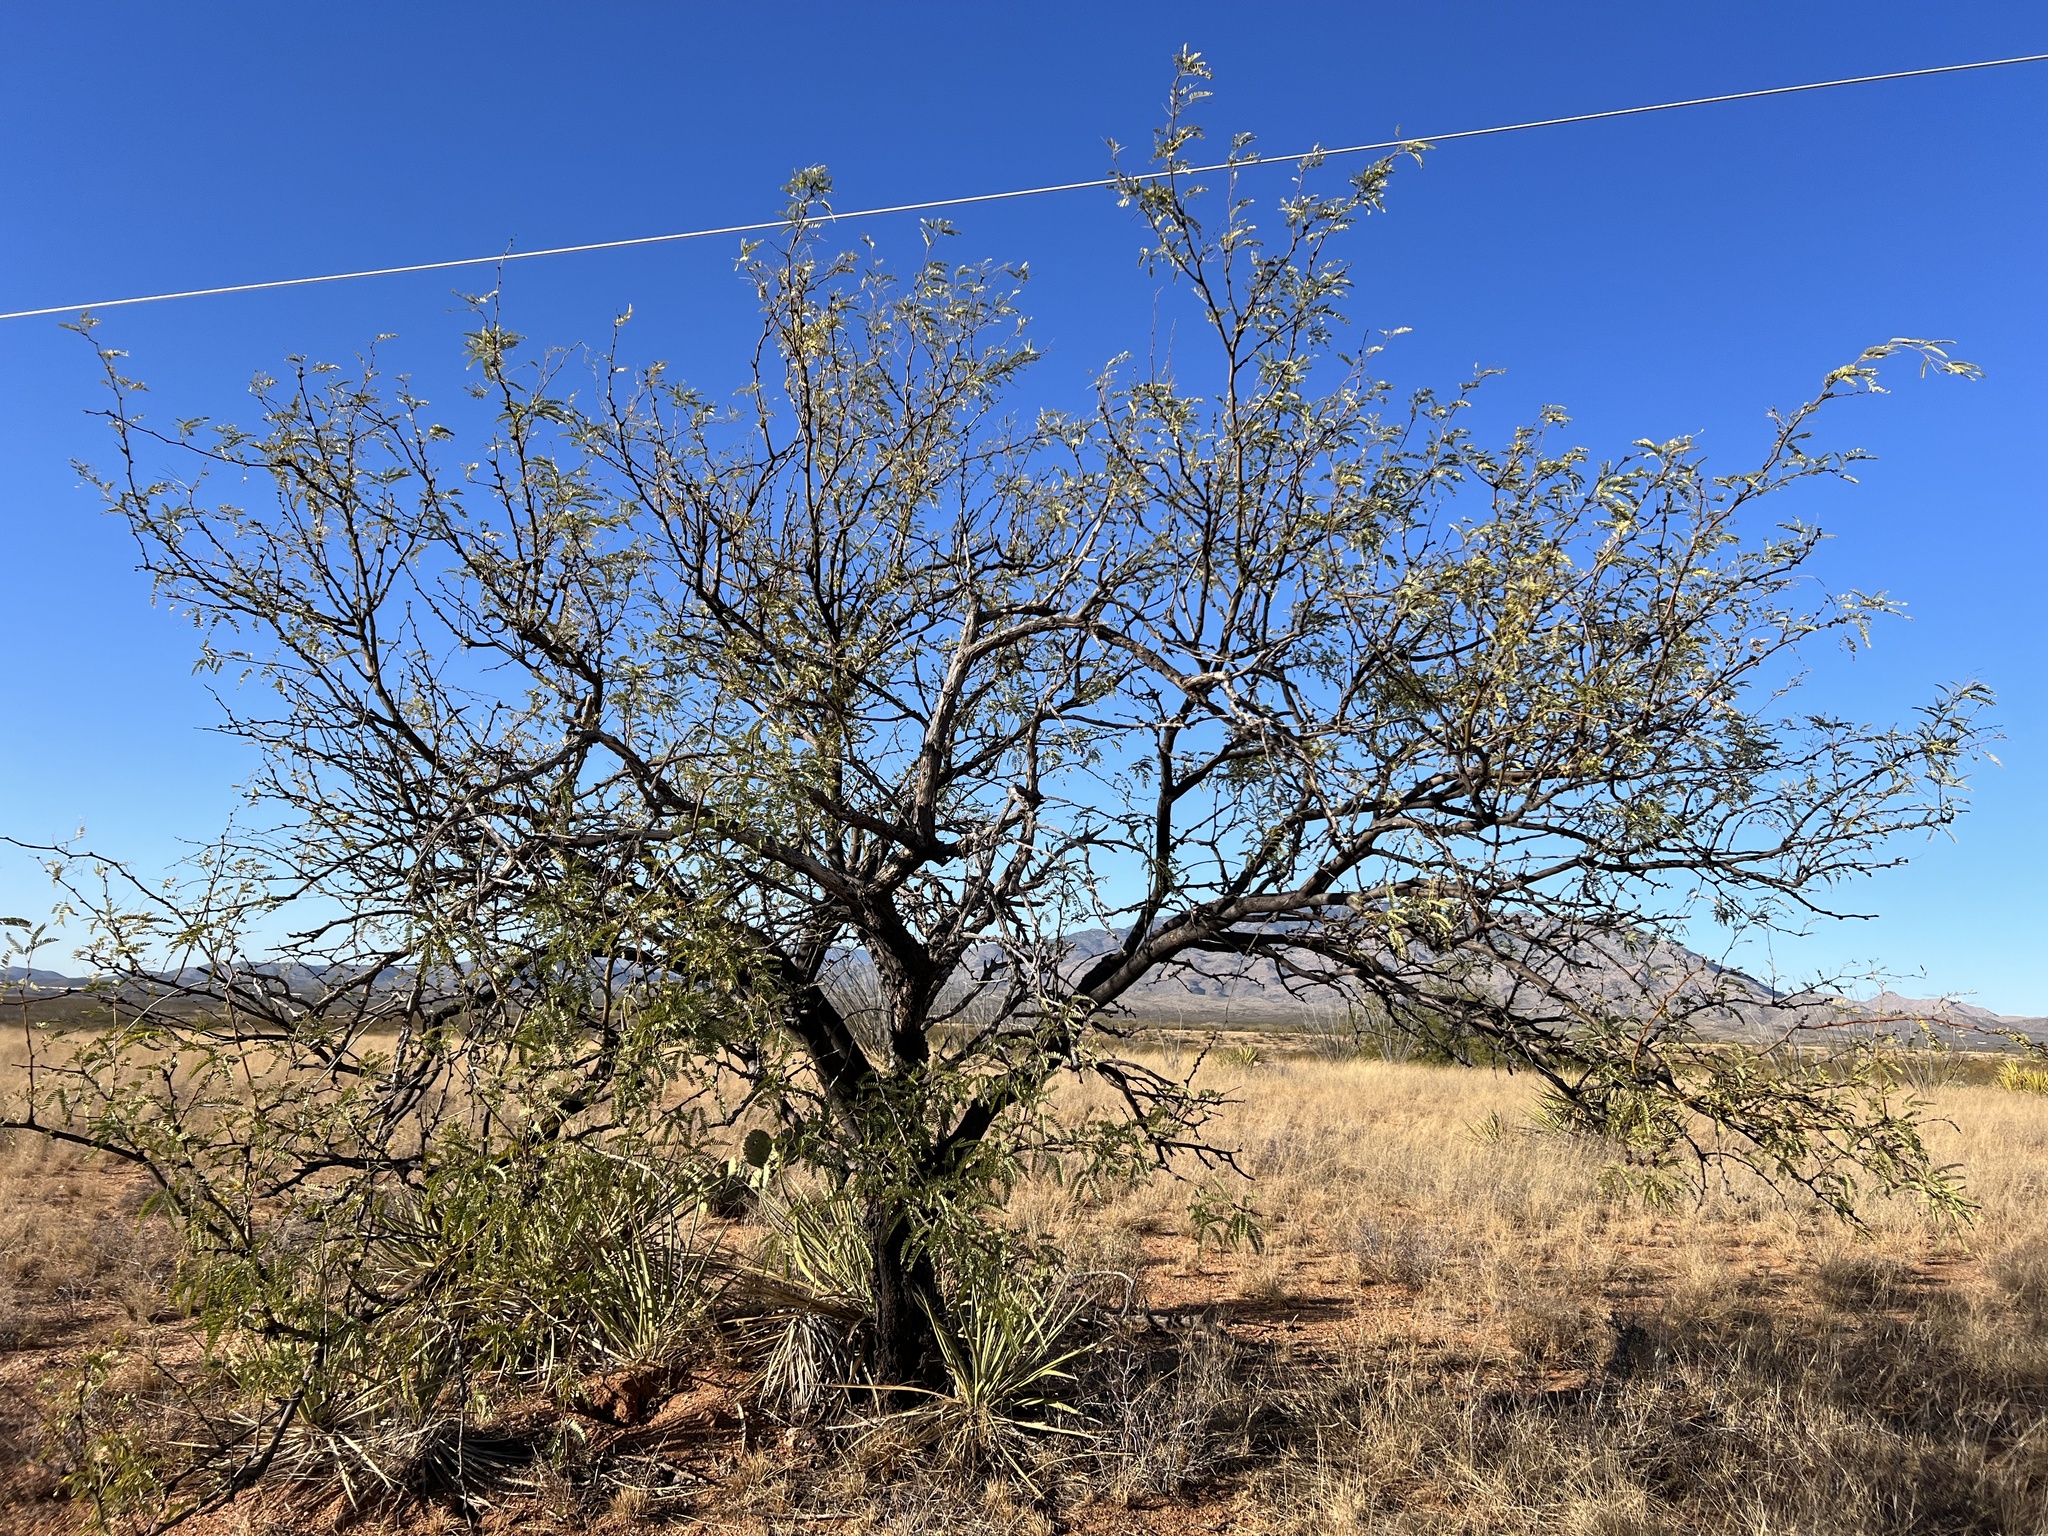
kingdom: Plantae
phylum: Tracheophyta
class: Magnoliopsida
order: Fabales
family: Fabaceae
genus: Prosopis
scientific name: Prosopis velutina
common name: Velvet mesquite
